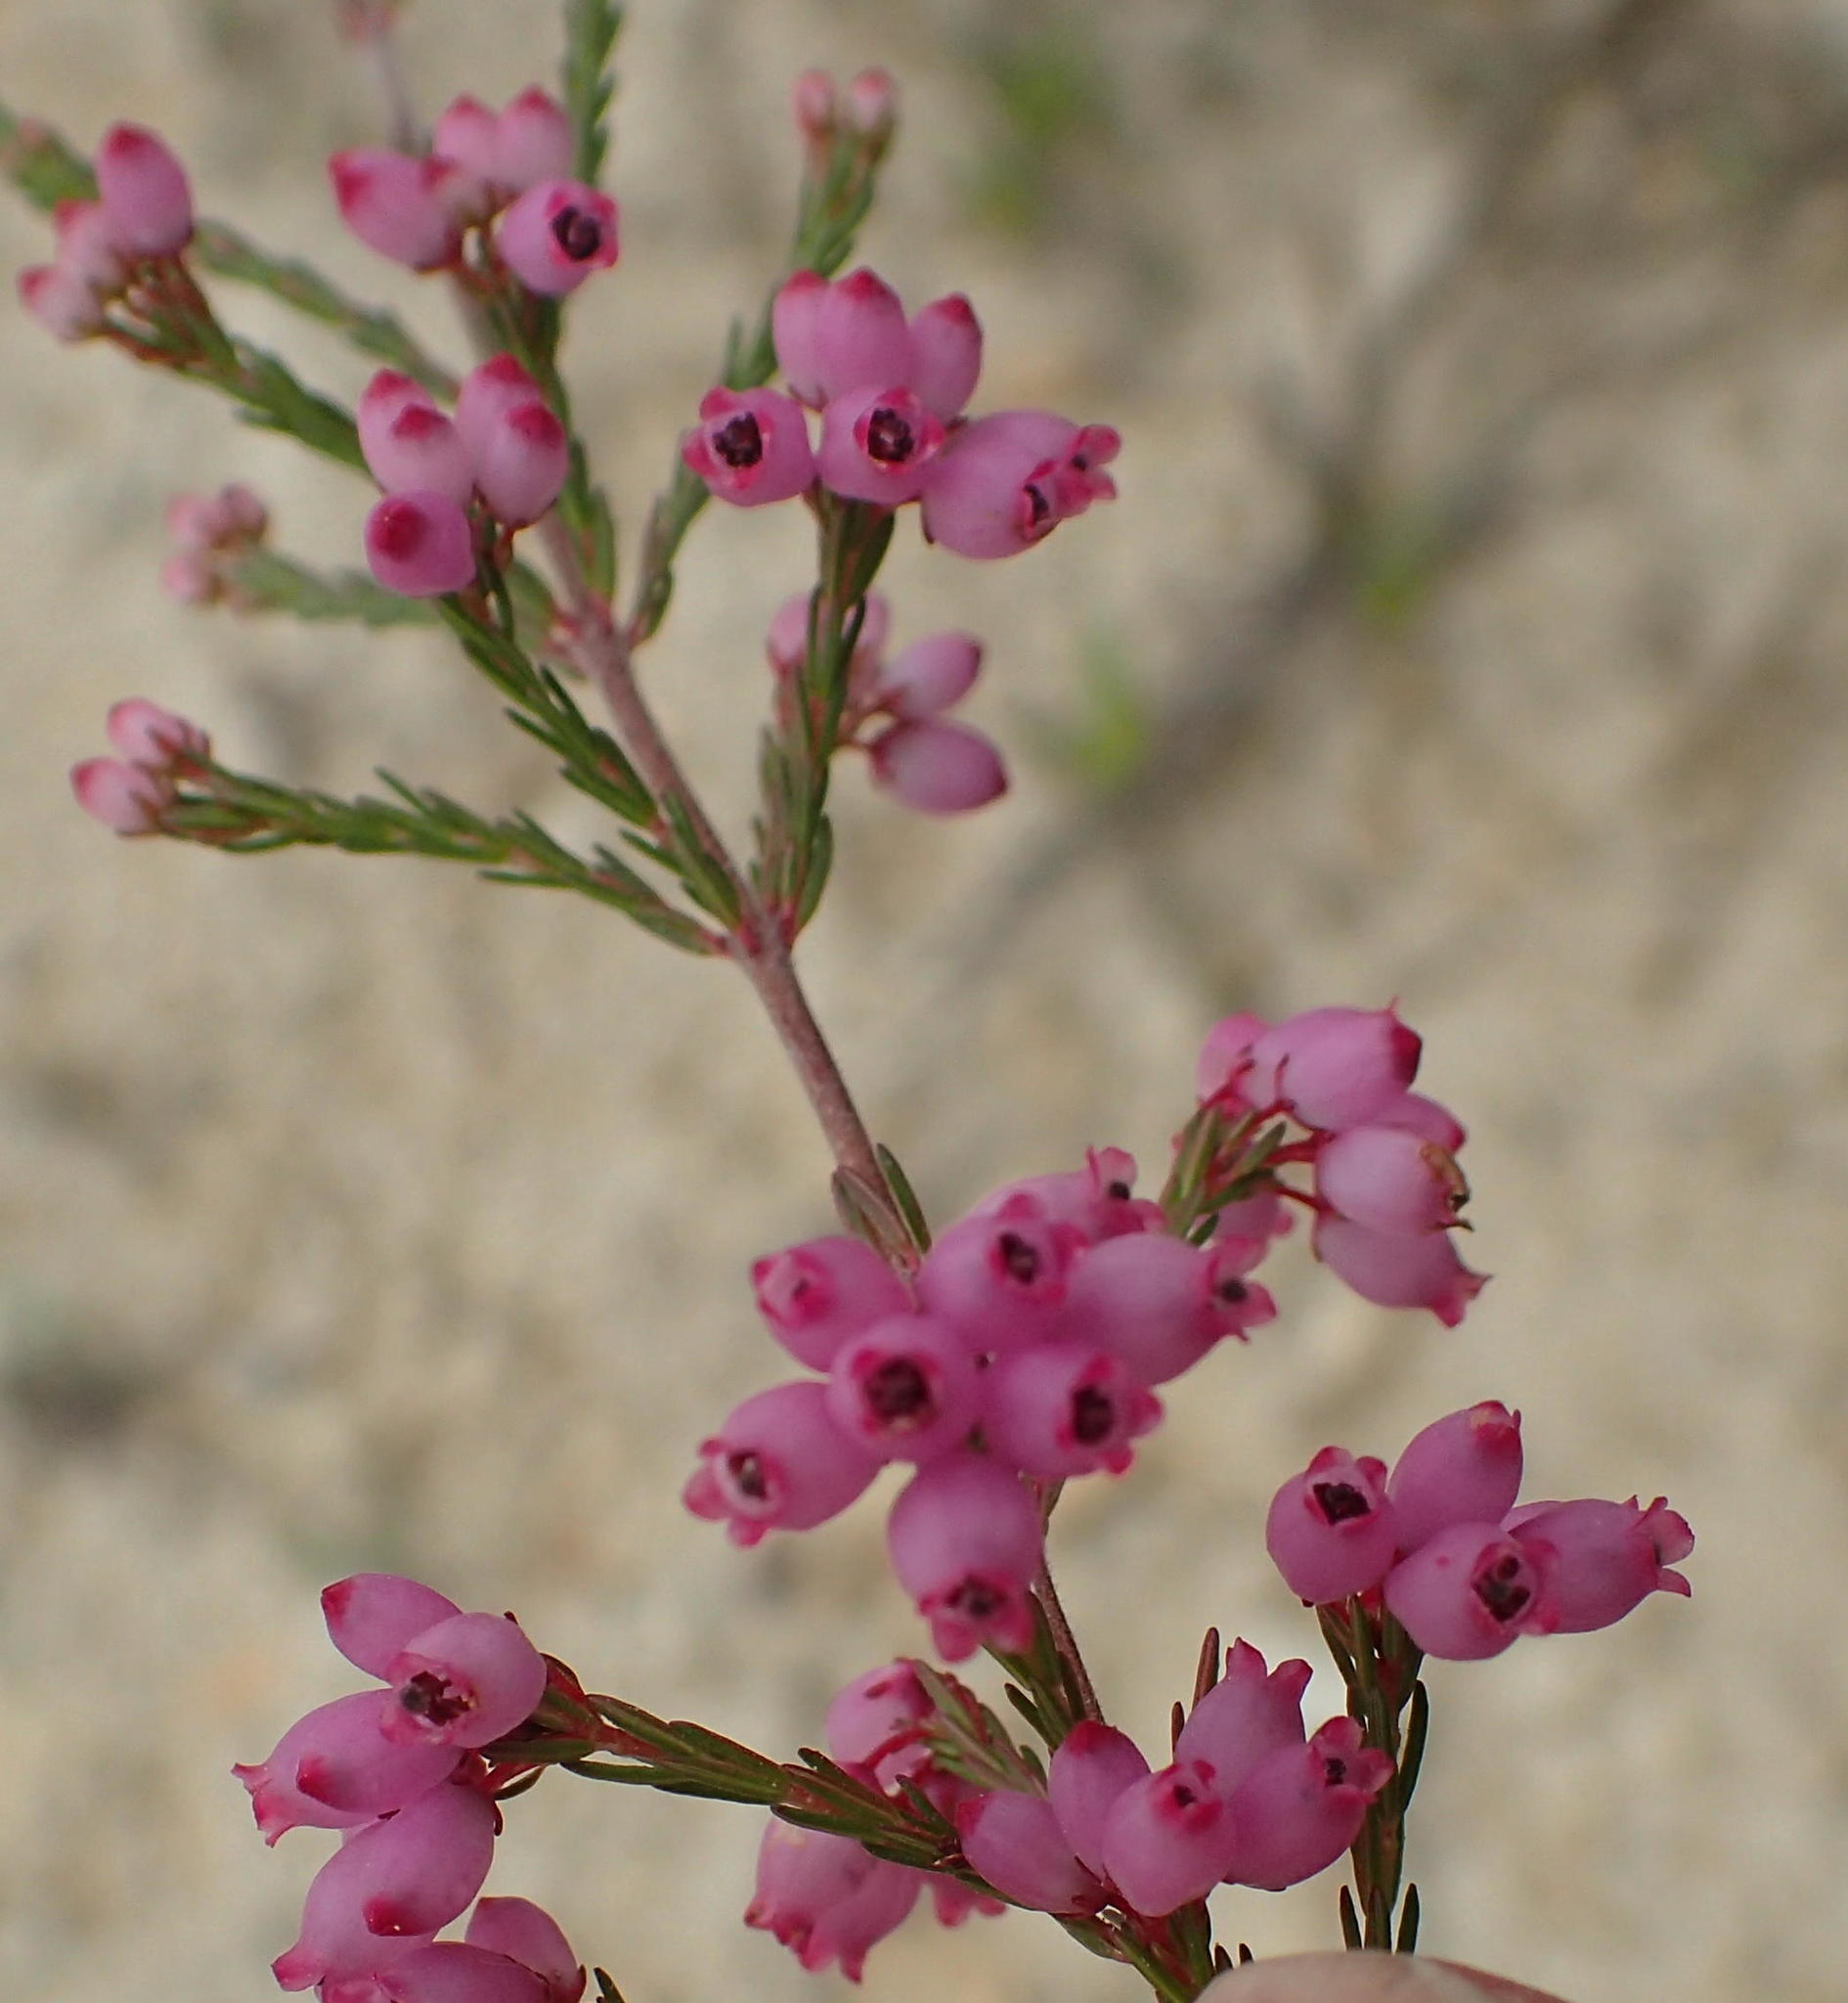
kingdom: Plantae
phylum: Tracheophyta
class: Magnoliopsida
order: Ericales
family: Ericaceae
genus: Erica
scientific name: Erica gracilis
